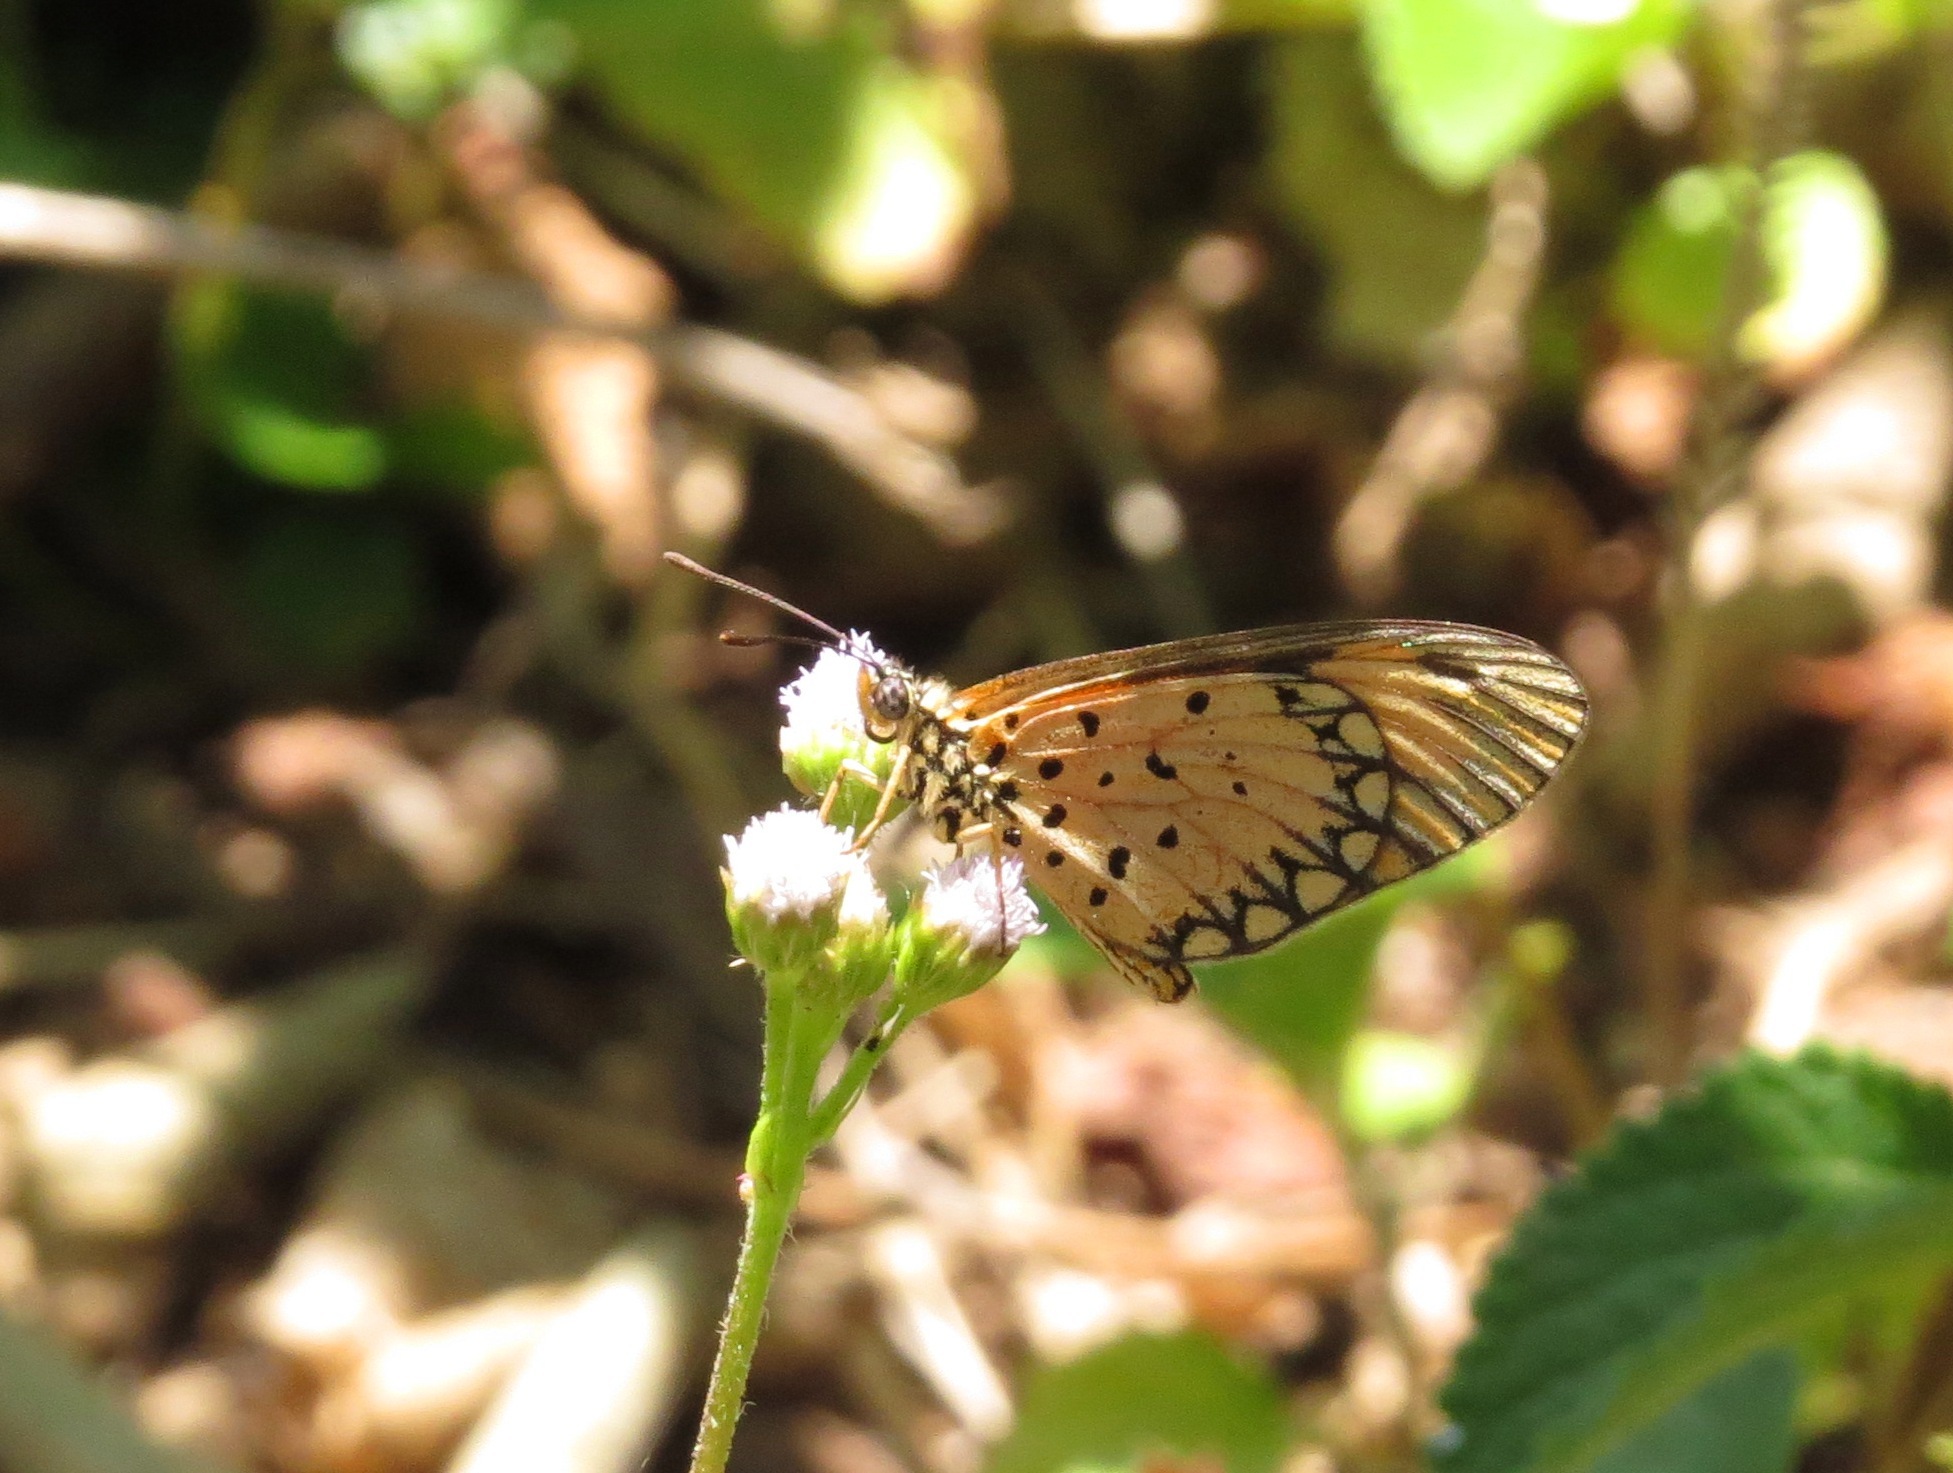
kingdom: Animalia
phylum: Arthropoda
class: Insecta
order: Lepidoptera
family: Nymphalidae
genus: Acraea
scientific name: Acraea Telchinia serena
